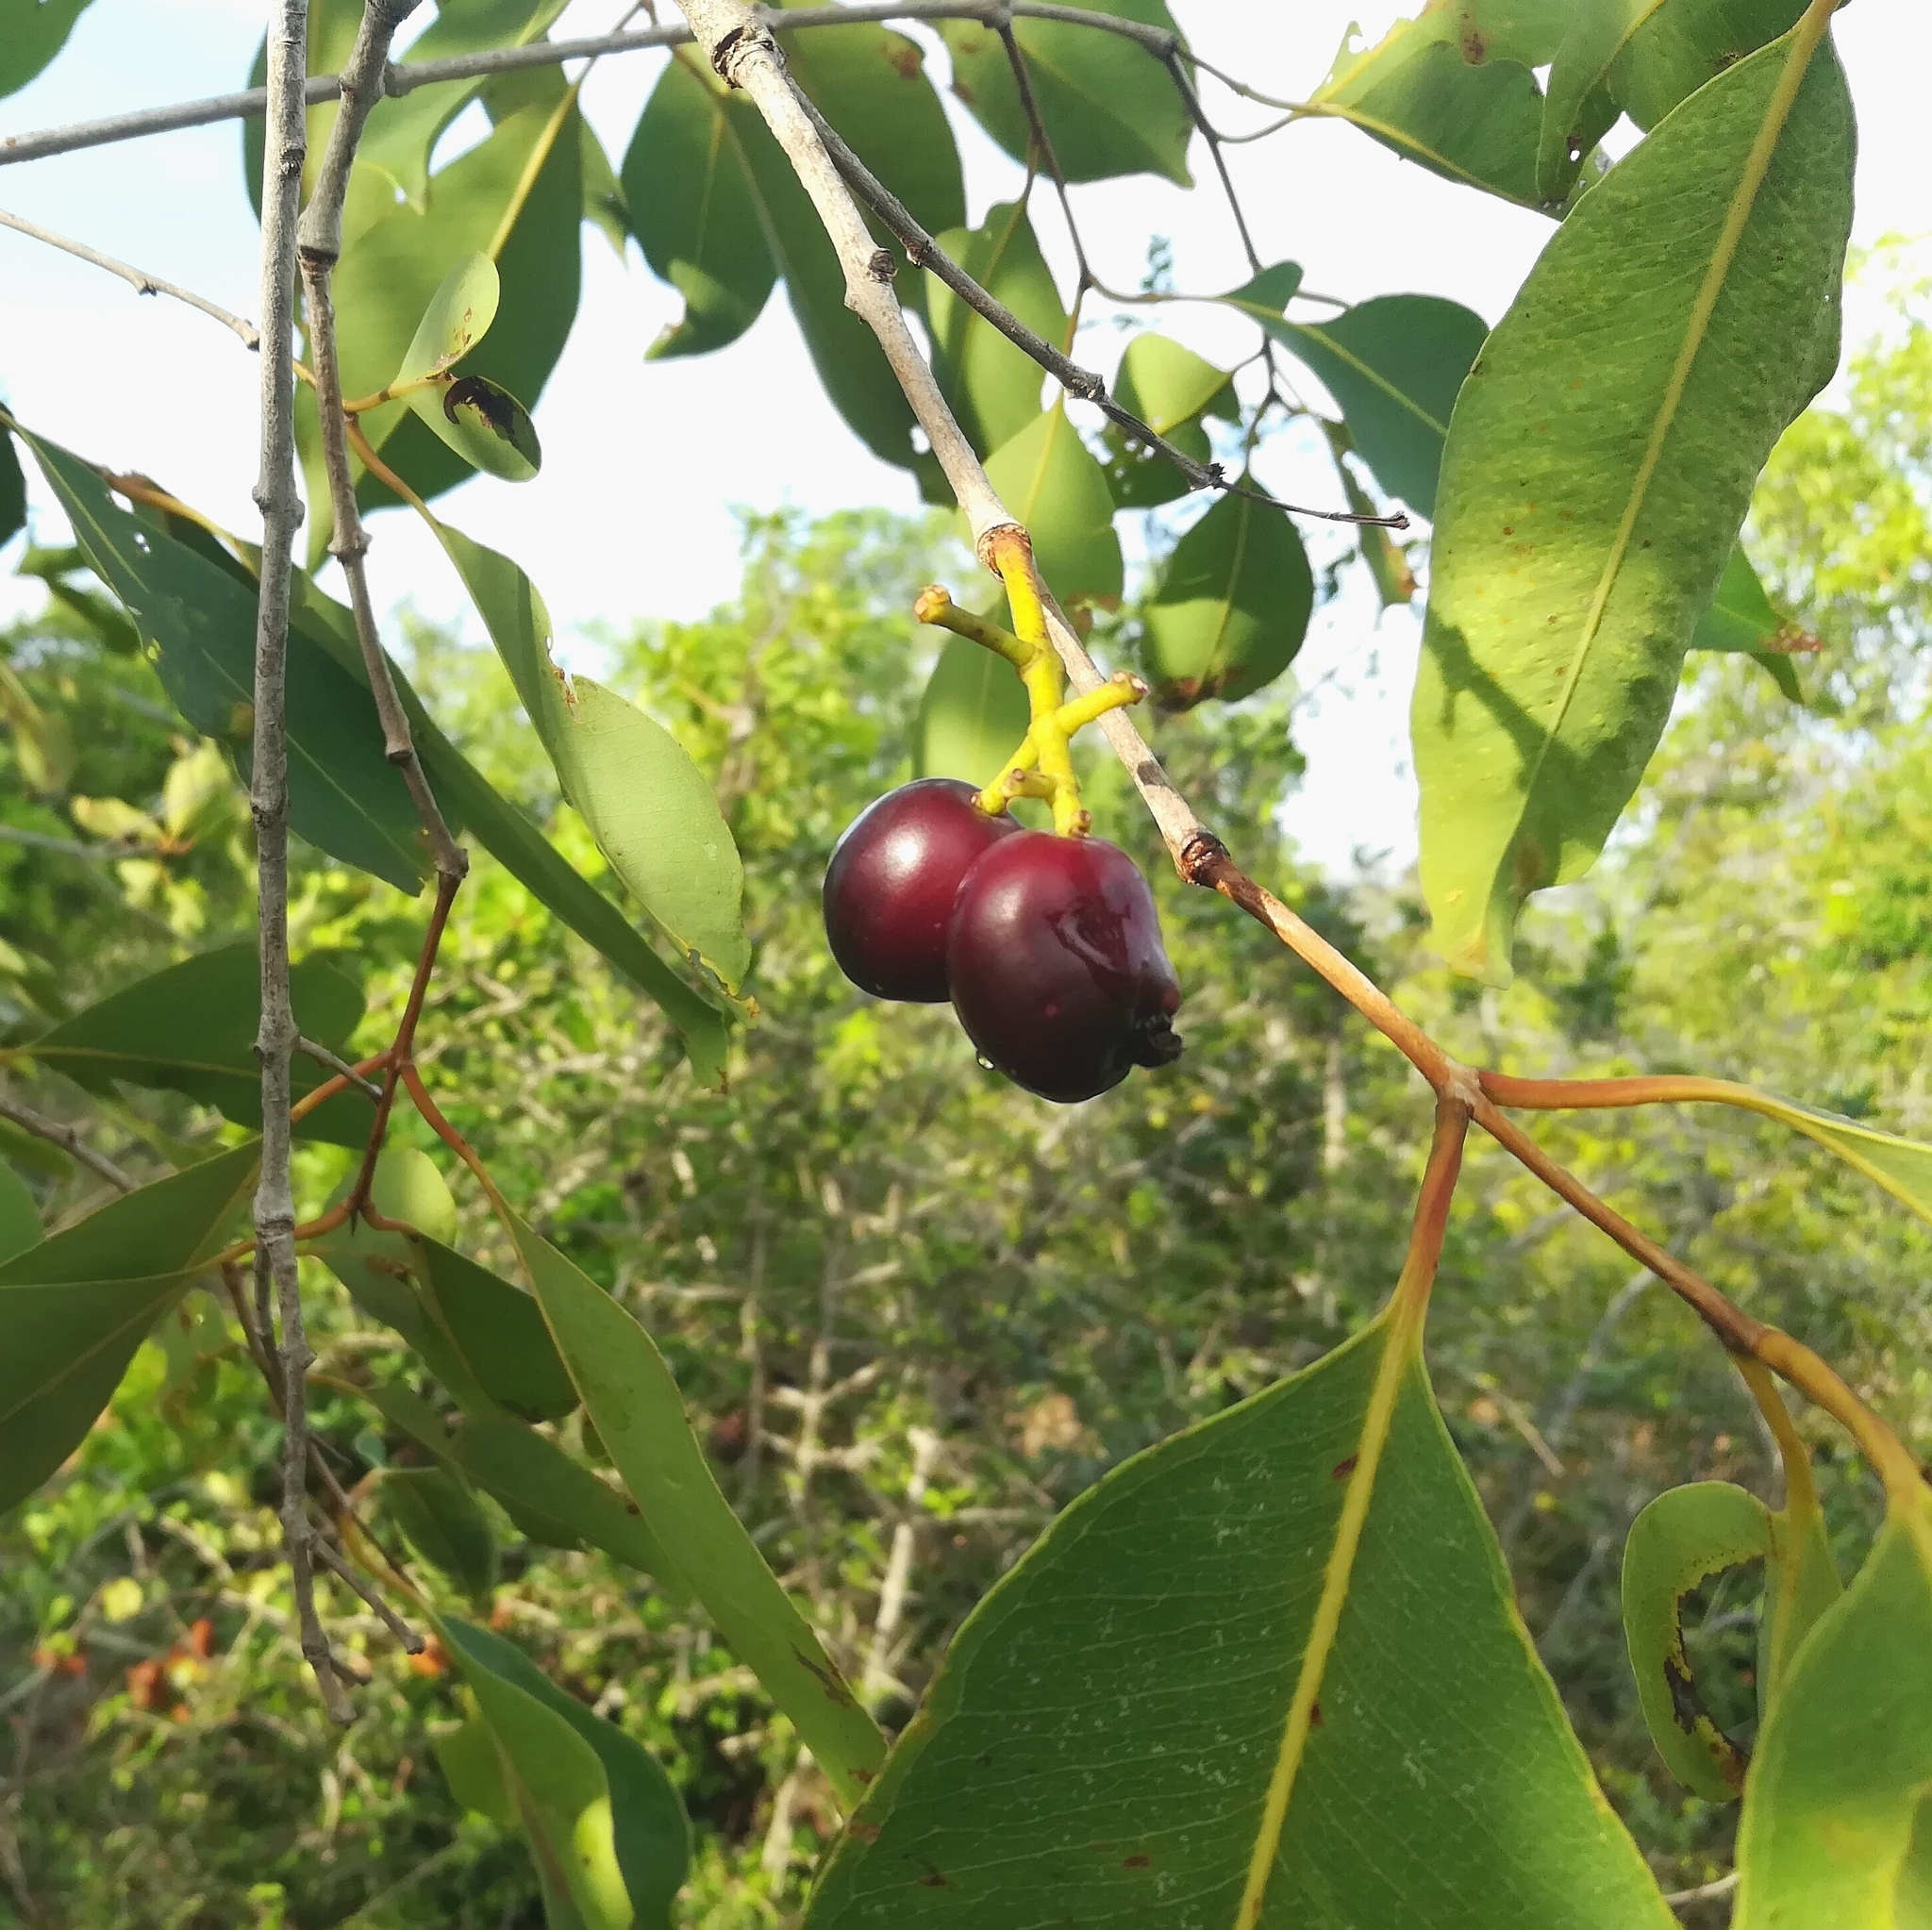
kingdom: Plantae
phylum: Tracheophyta
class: Magnoliopsida
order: Myrtales
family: Myrtaceae
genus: Syzygium
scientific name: Syzygium cumini
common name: Java plum
